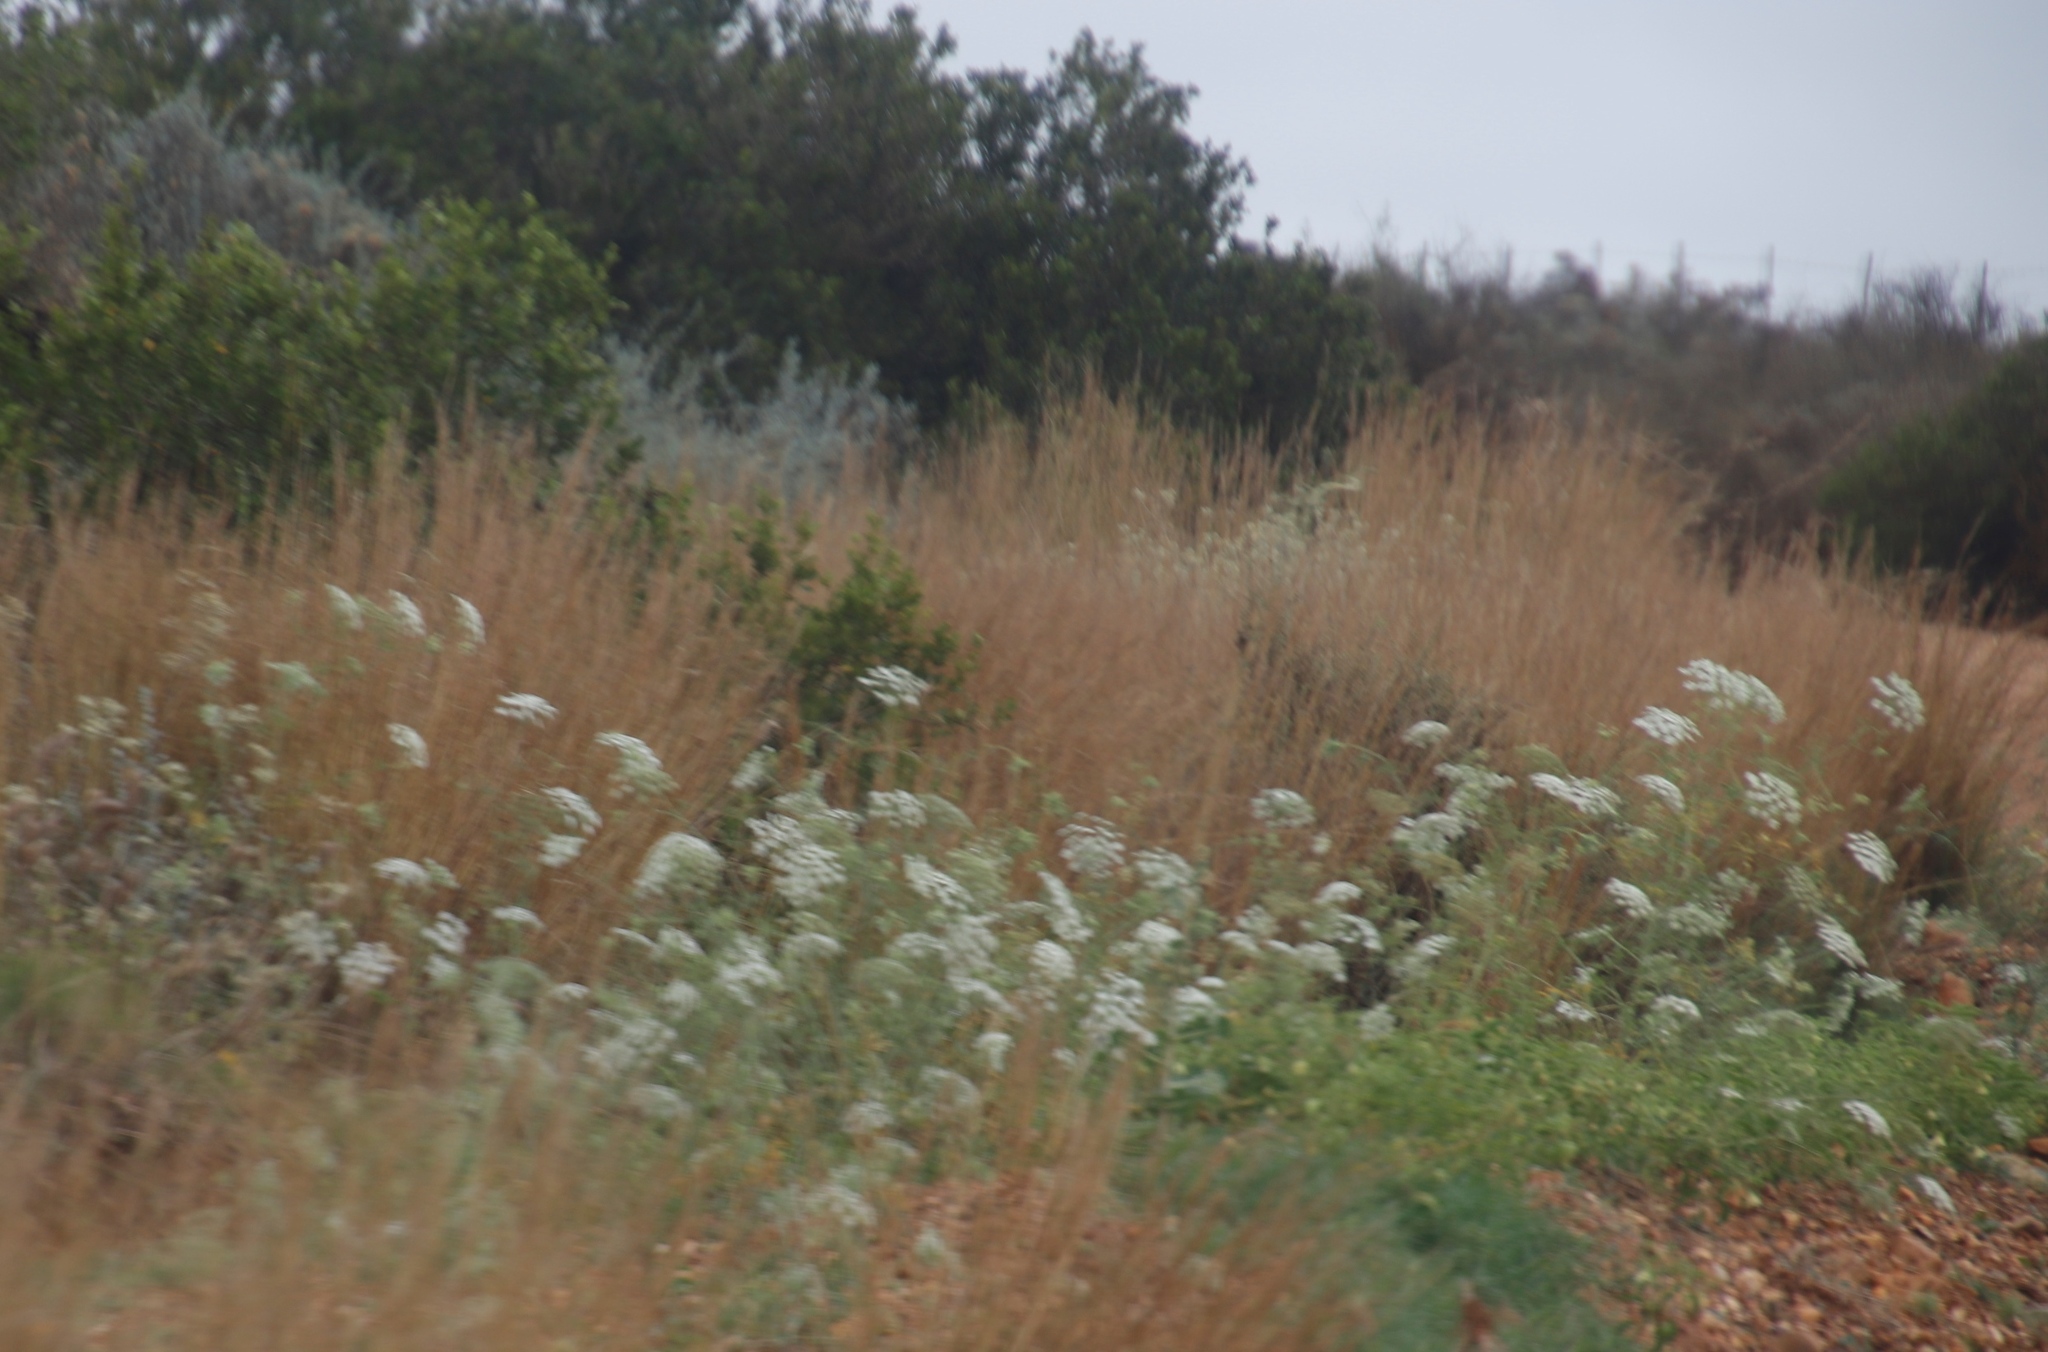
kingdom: Plantae
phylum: Tracheophyta
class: Magnoliopsida
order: Apiales
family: Apiaceae
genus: Ammi
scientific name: Ammi majus
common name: Bullwort
